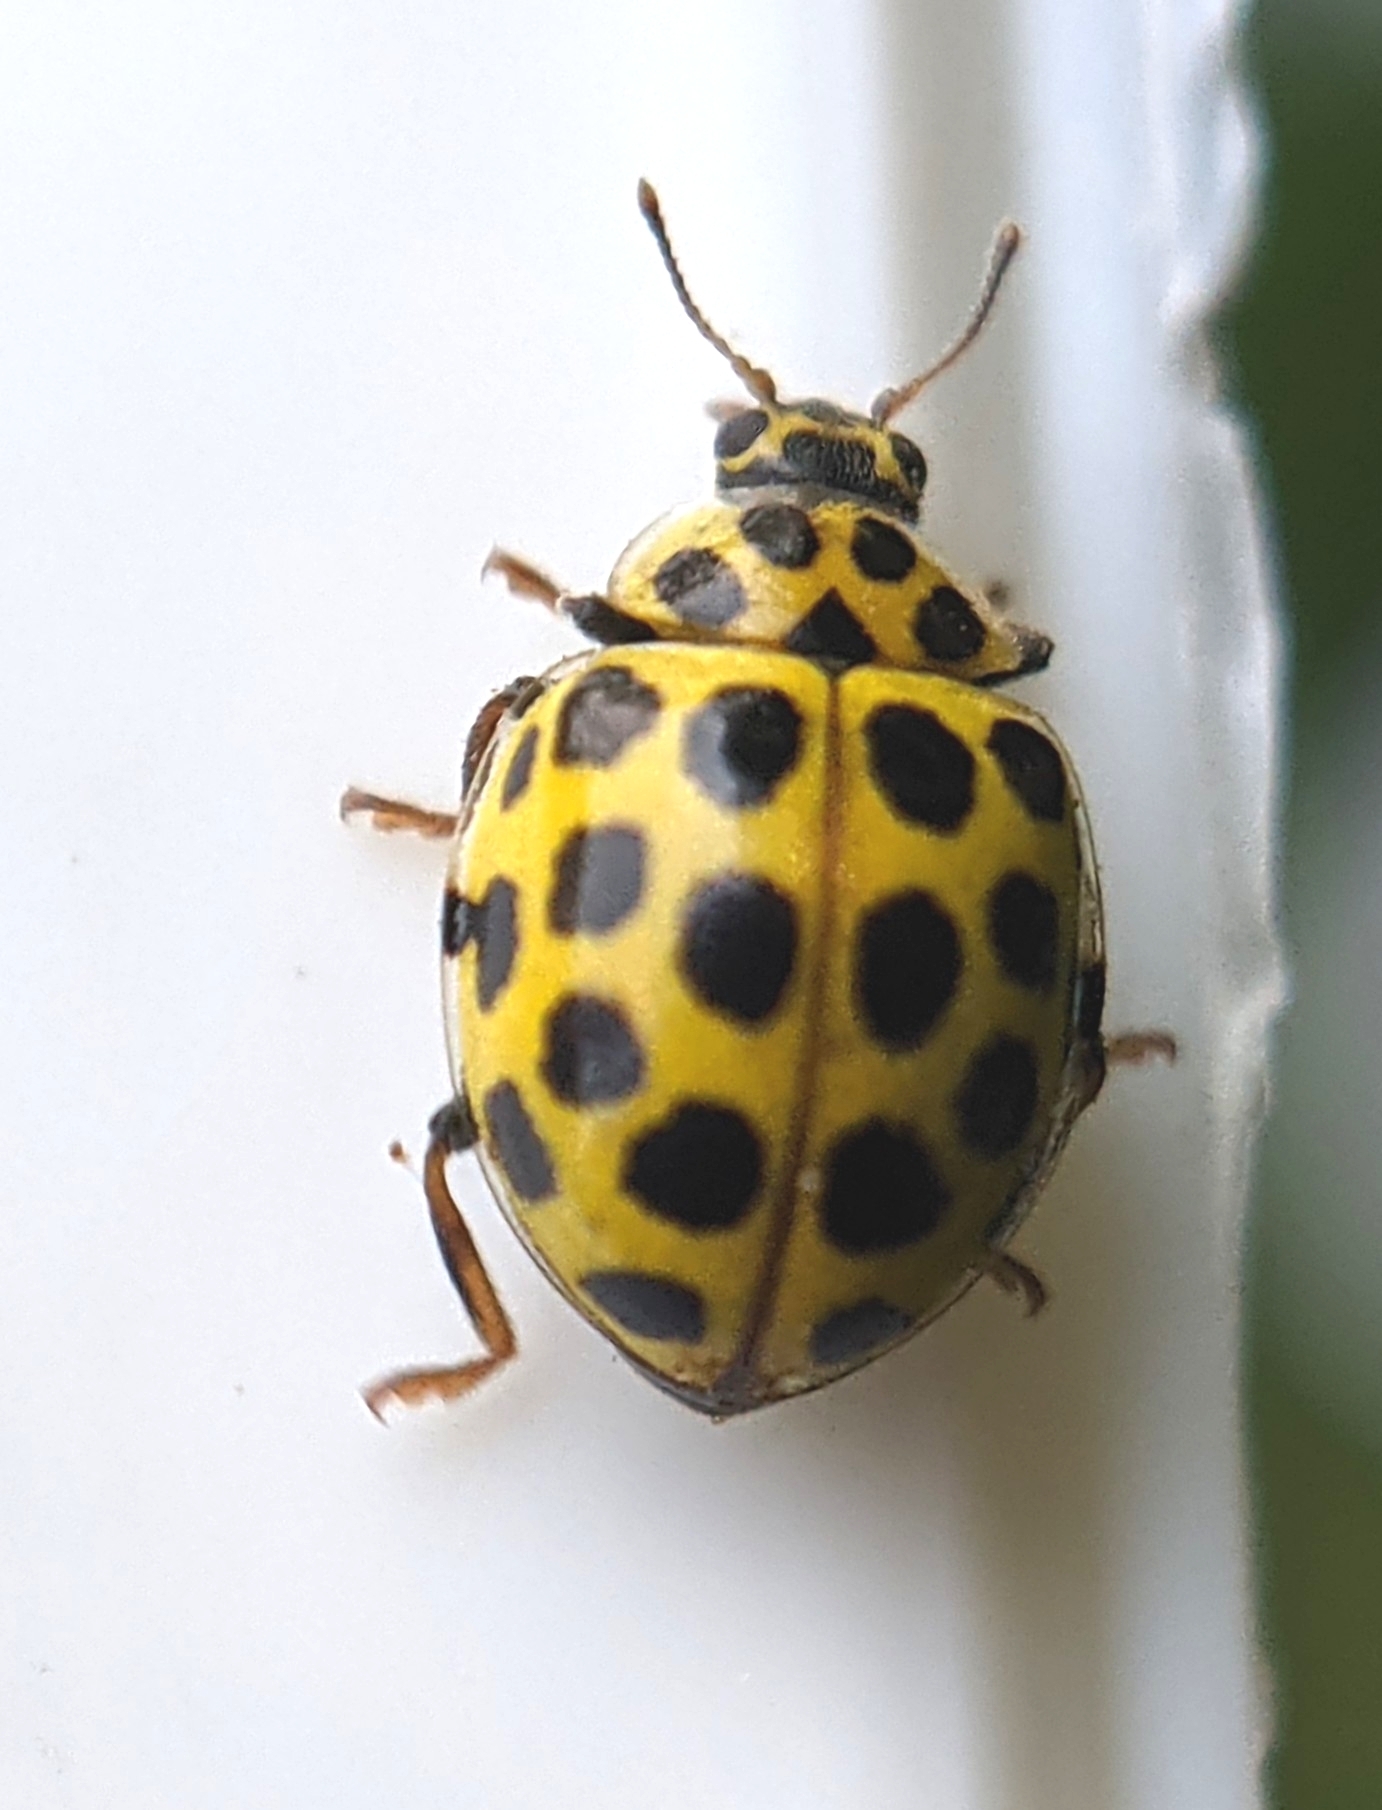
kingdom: Animalia
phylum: Arthropoda
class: Insecta
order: Coleoptera
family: Coccinellidae
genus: Psyllobora
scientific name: Psyllobora vigintiduopunctata
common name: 22-spot ladybird
